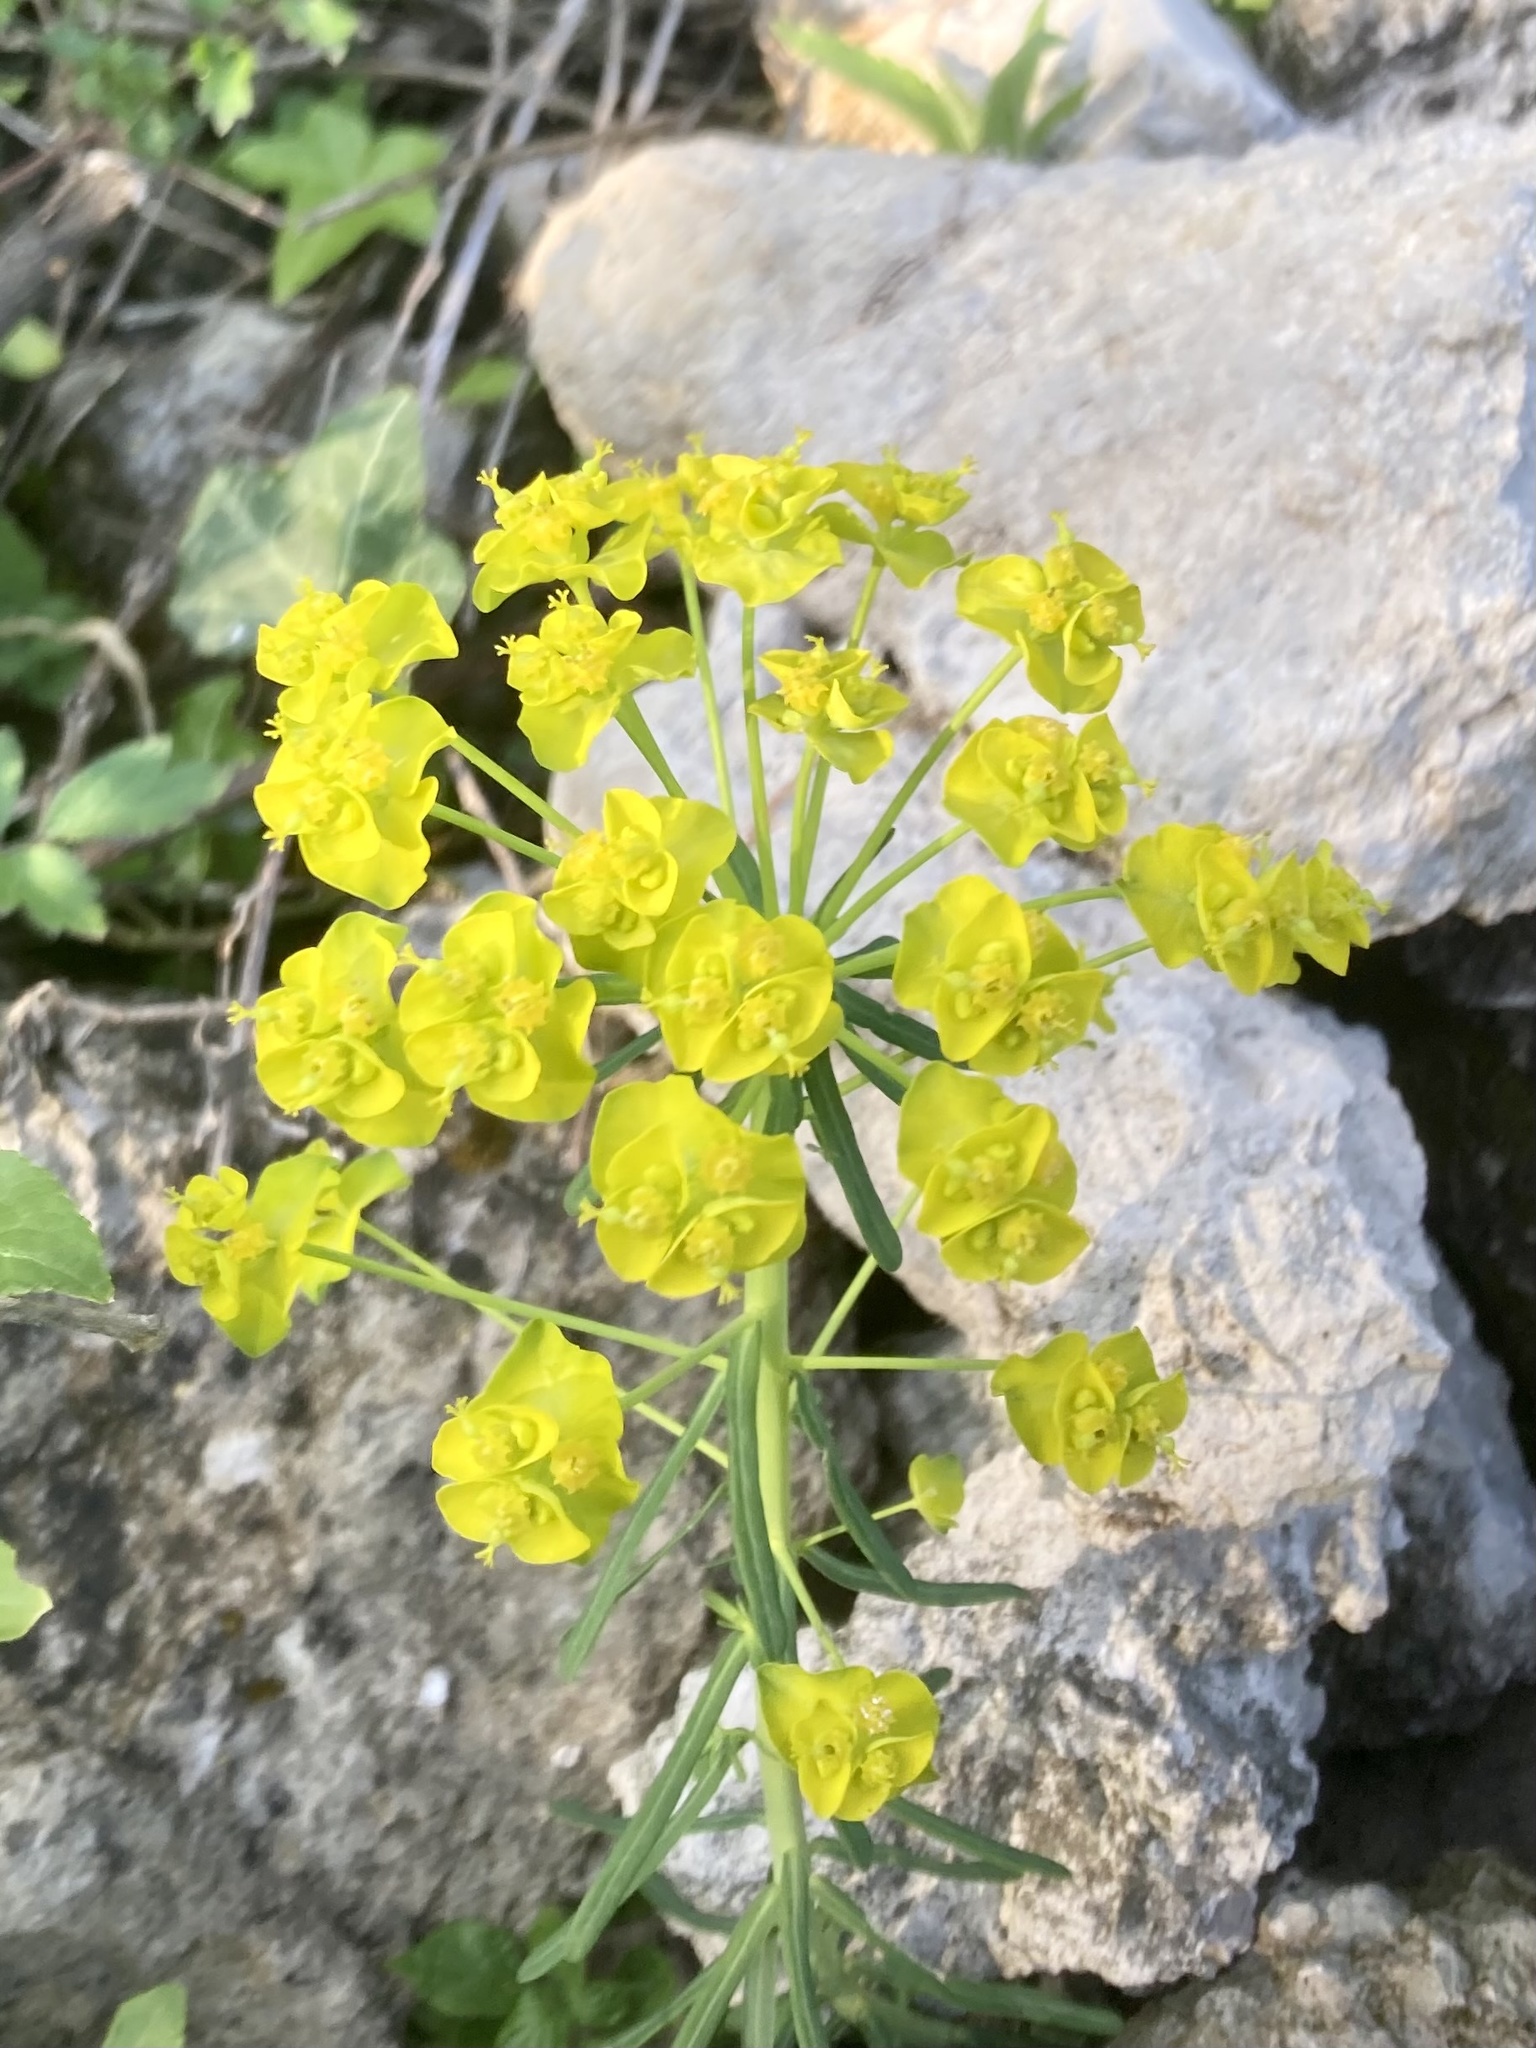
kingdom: Plantae
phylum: Tracheophyta
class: Magnoliopsida
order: Malpighiales
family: Euphorbiaceae
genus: Euphorbia
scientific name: Euphorbia cyparissias
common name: Cypress spurge
